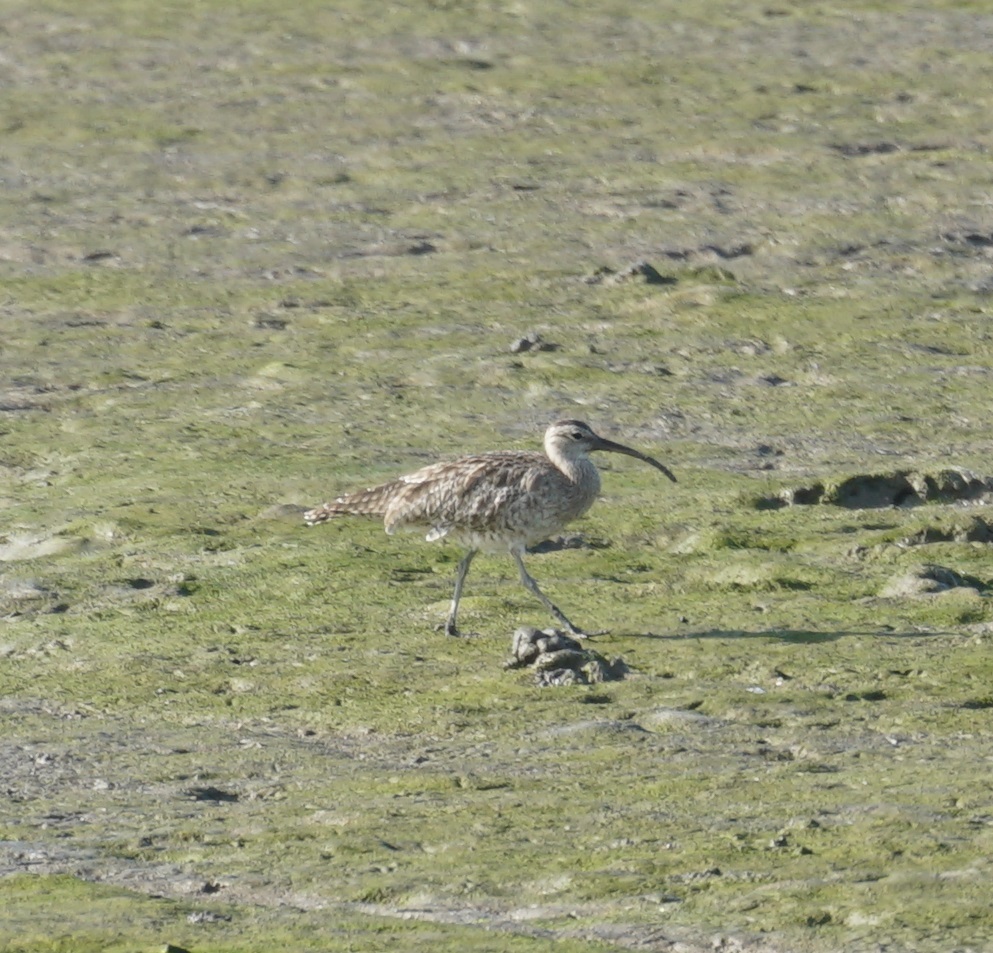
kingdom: Animalia
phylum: Chordata
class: Aves
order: Charadriiformes
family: Scolopacidae
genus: Numenius
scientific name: Numenius phaeopus
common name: Whimbrel
